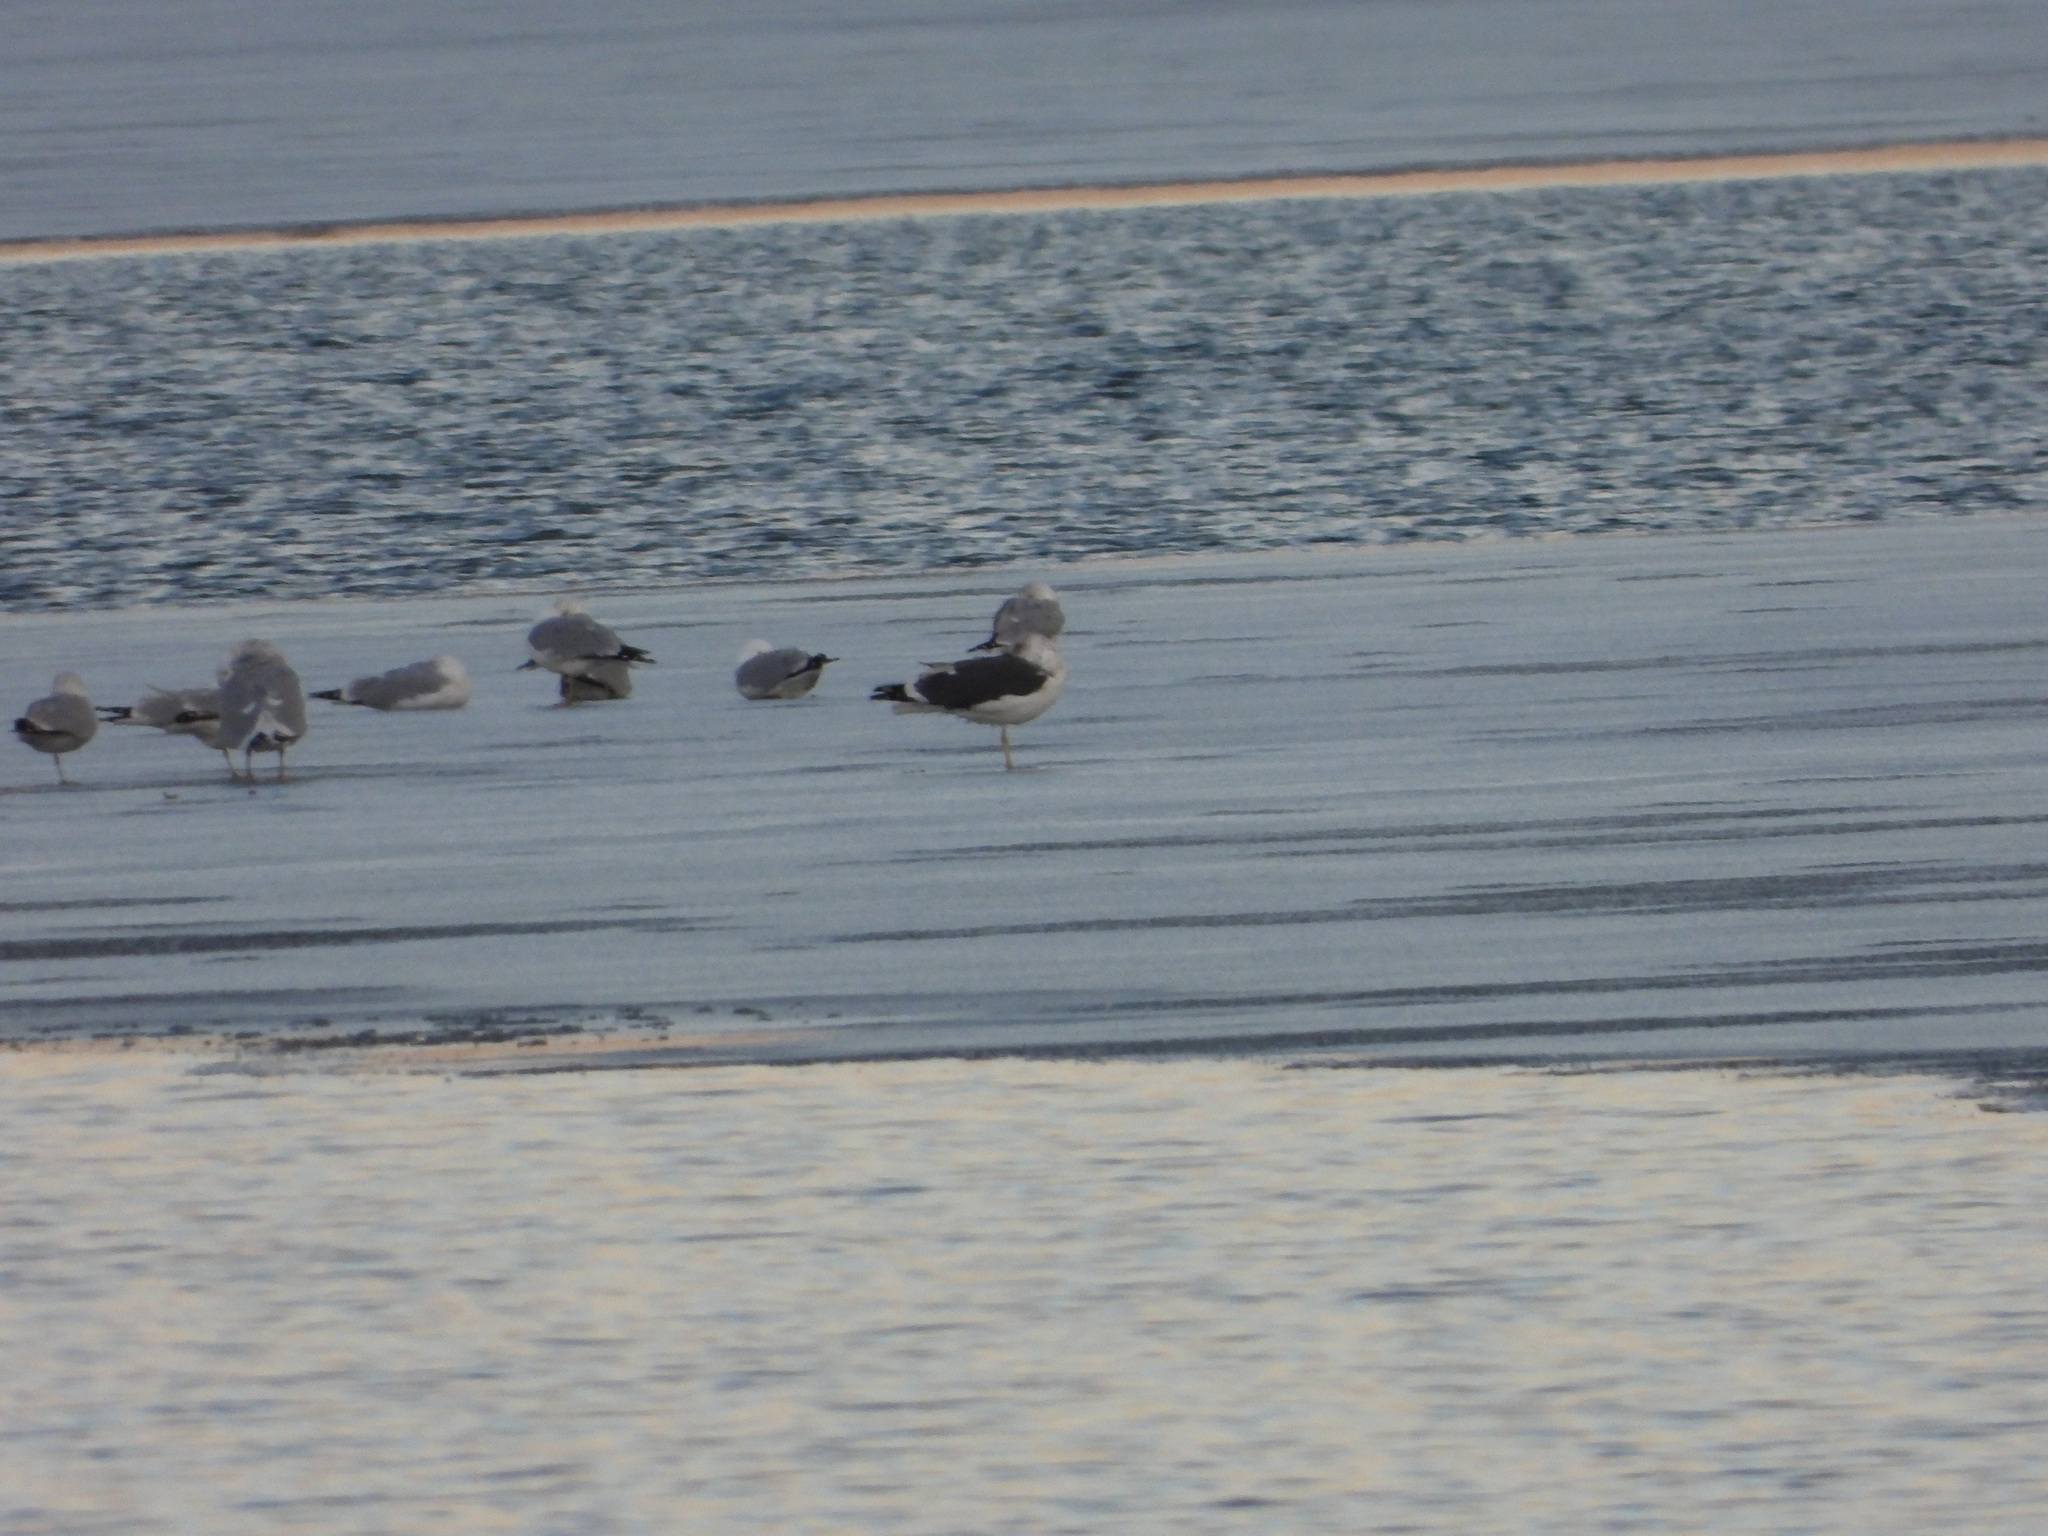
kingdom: Animalia
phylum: Chordata
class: Aves
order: Charadriiformes
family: Laridae
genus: Larus
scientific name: Larus fuscus
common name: Lesser black-backed gull
